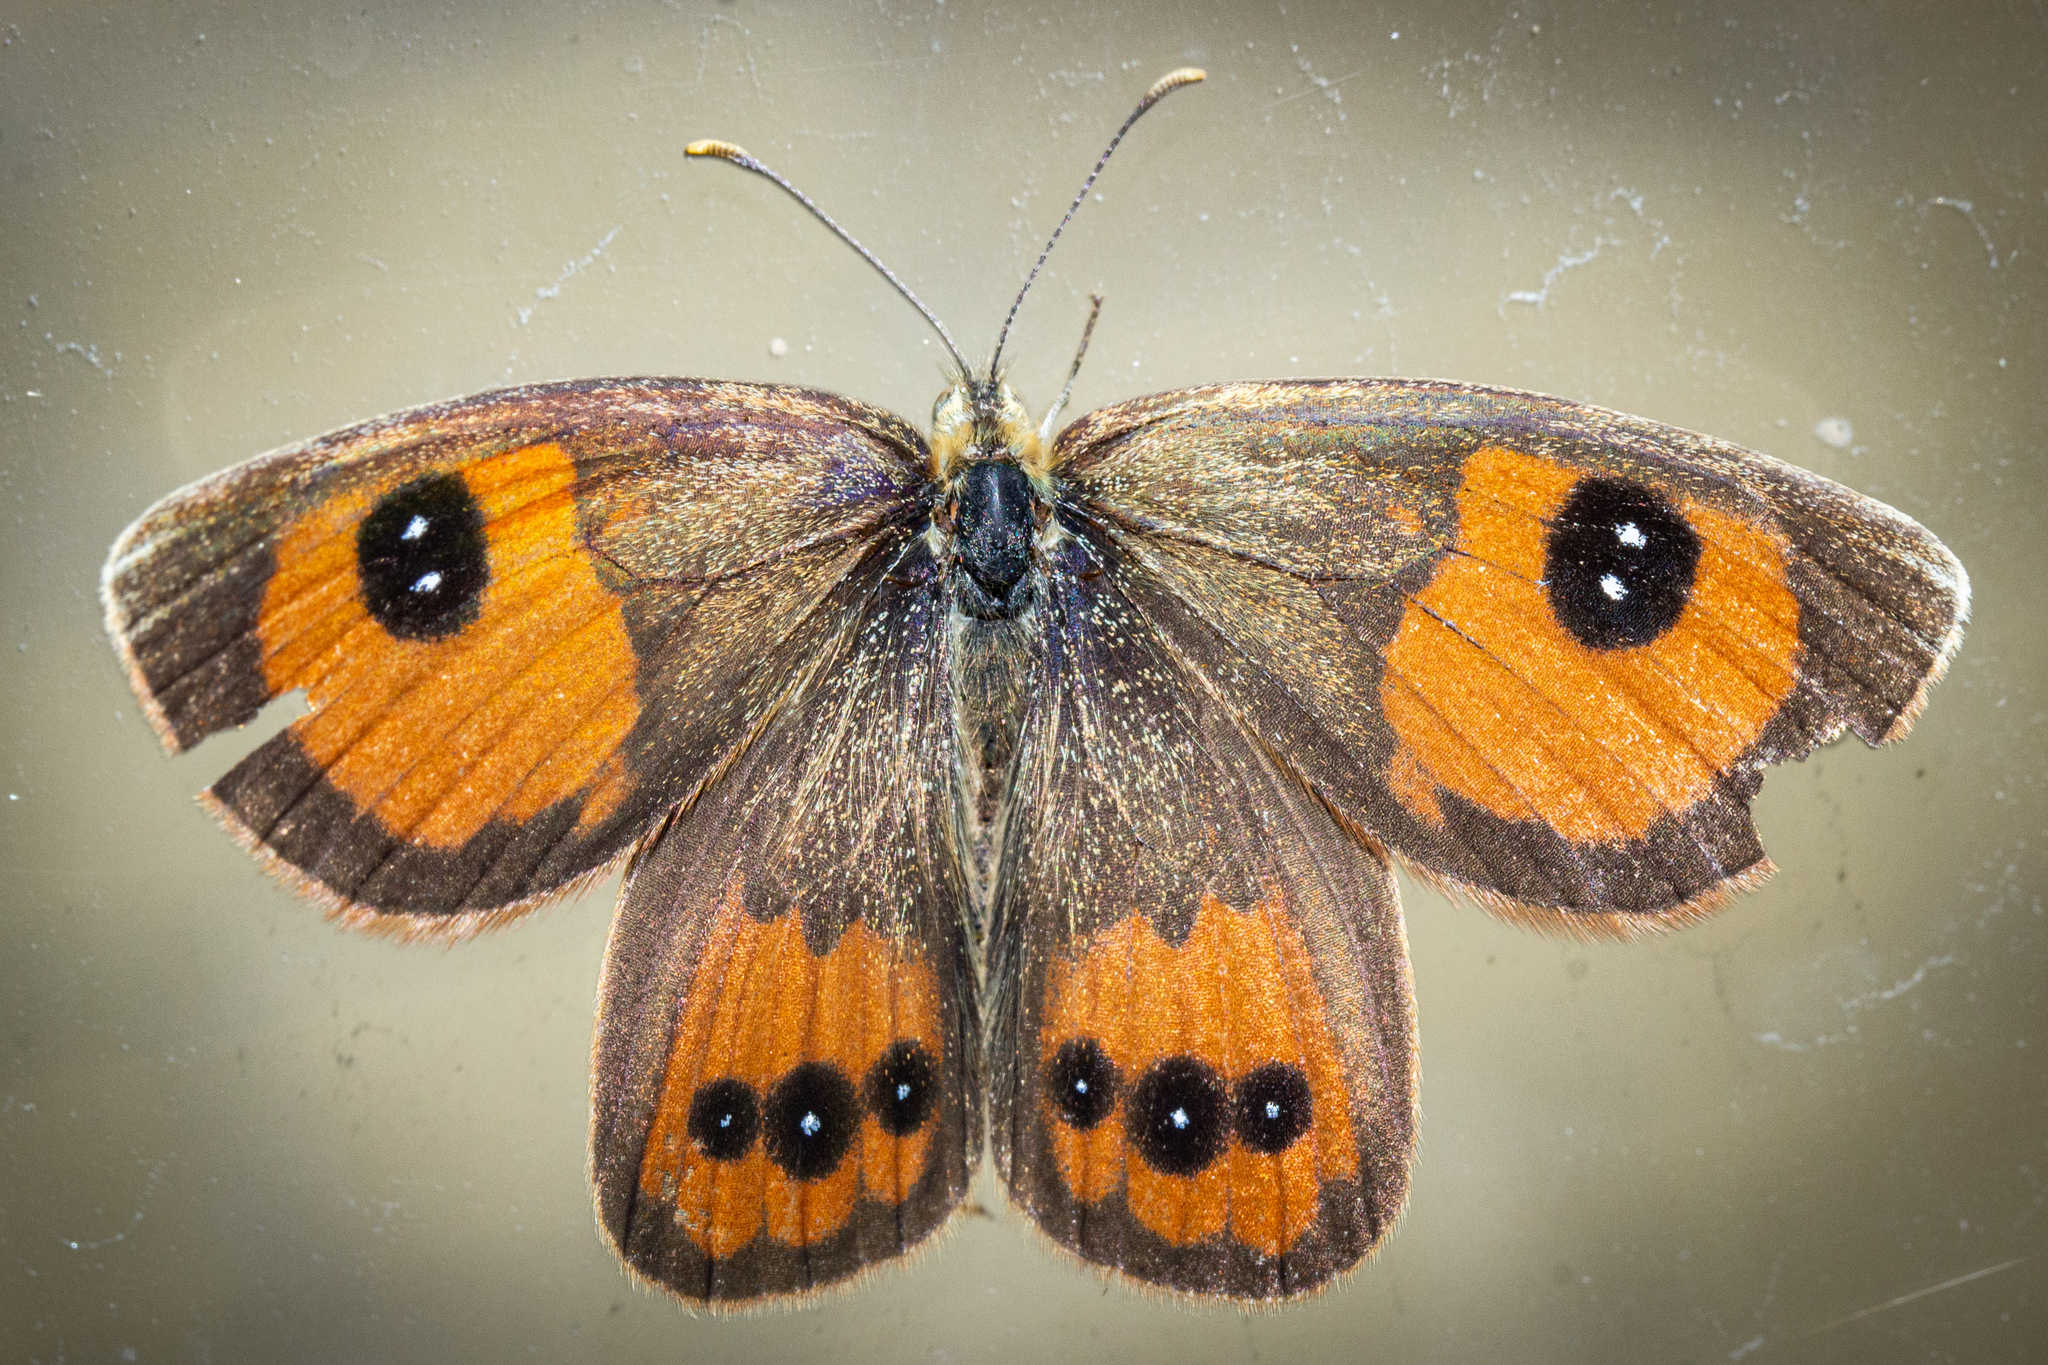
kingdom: Animalia
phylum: Arthropoda
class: Insecta
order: Lepidoptera
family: Nymphalidae
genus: Argyrophenga
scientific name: Argyrophenga antipodum
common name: Common tussock butterfly
